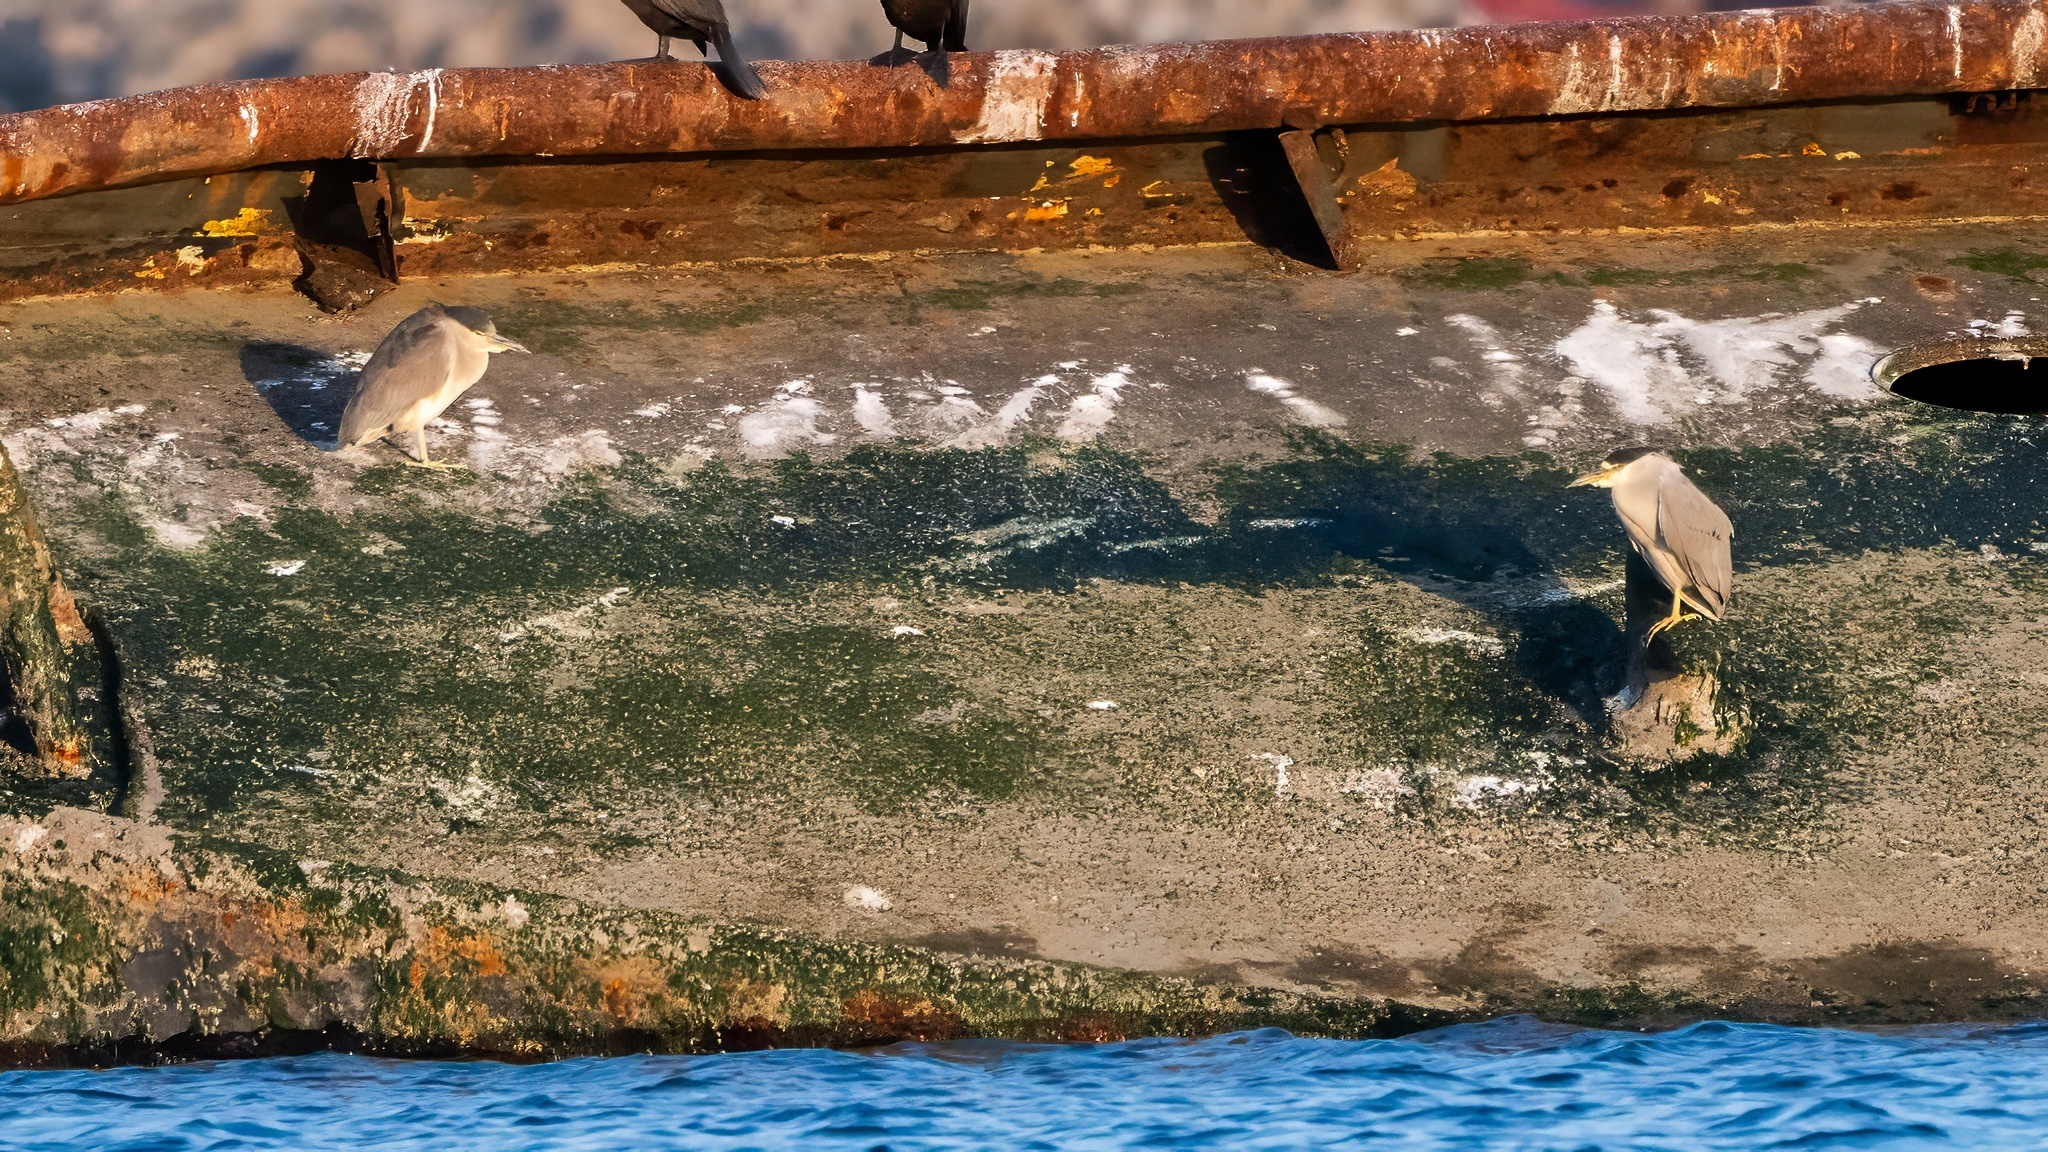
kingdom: Animalia
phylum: Chordata
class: Aves
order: Pelecaniformes
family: Ardeidae
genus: Nycticorax
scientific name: Nycticorax nycticorax
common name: Black-crowned night heron
